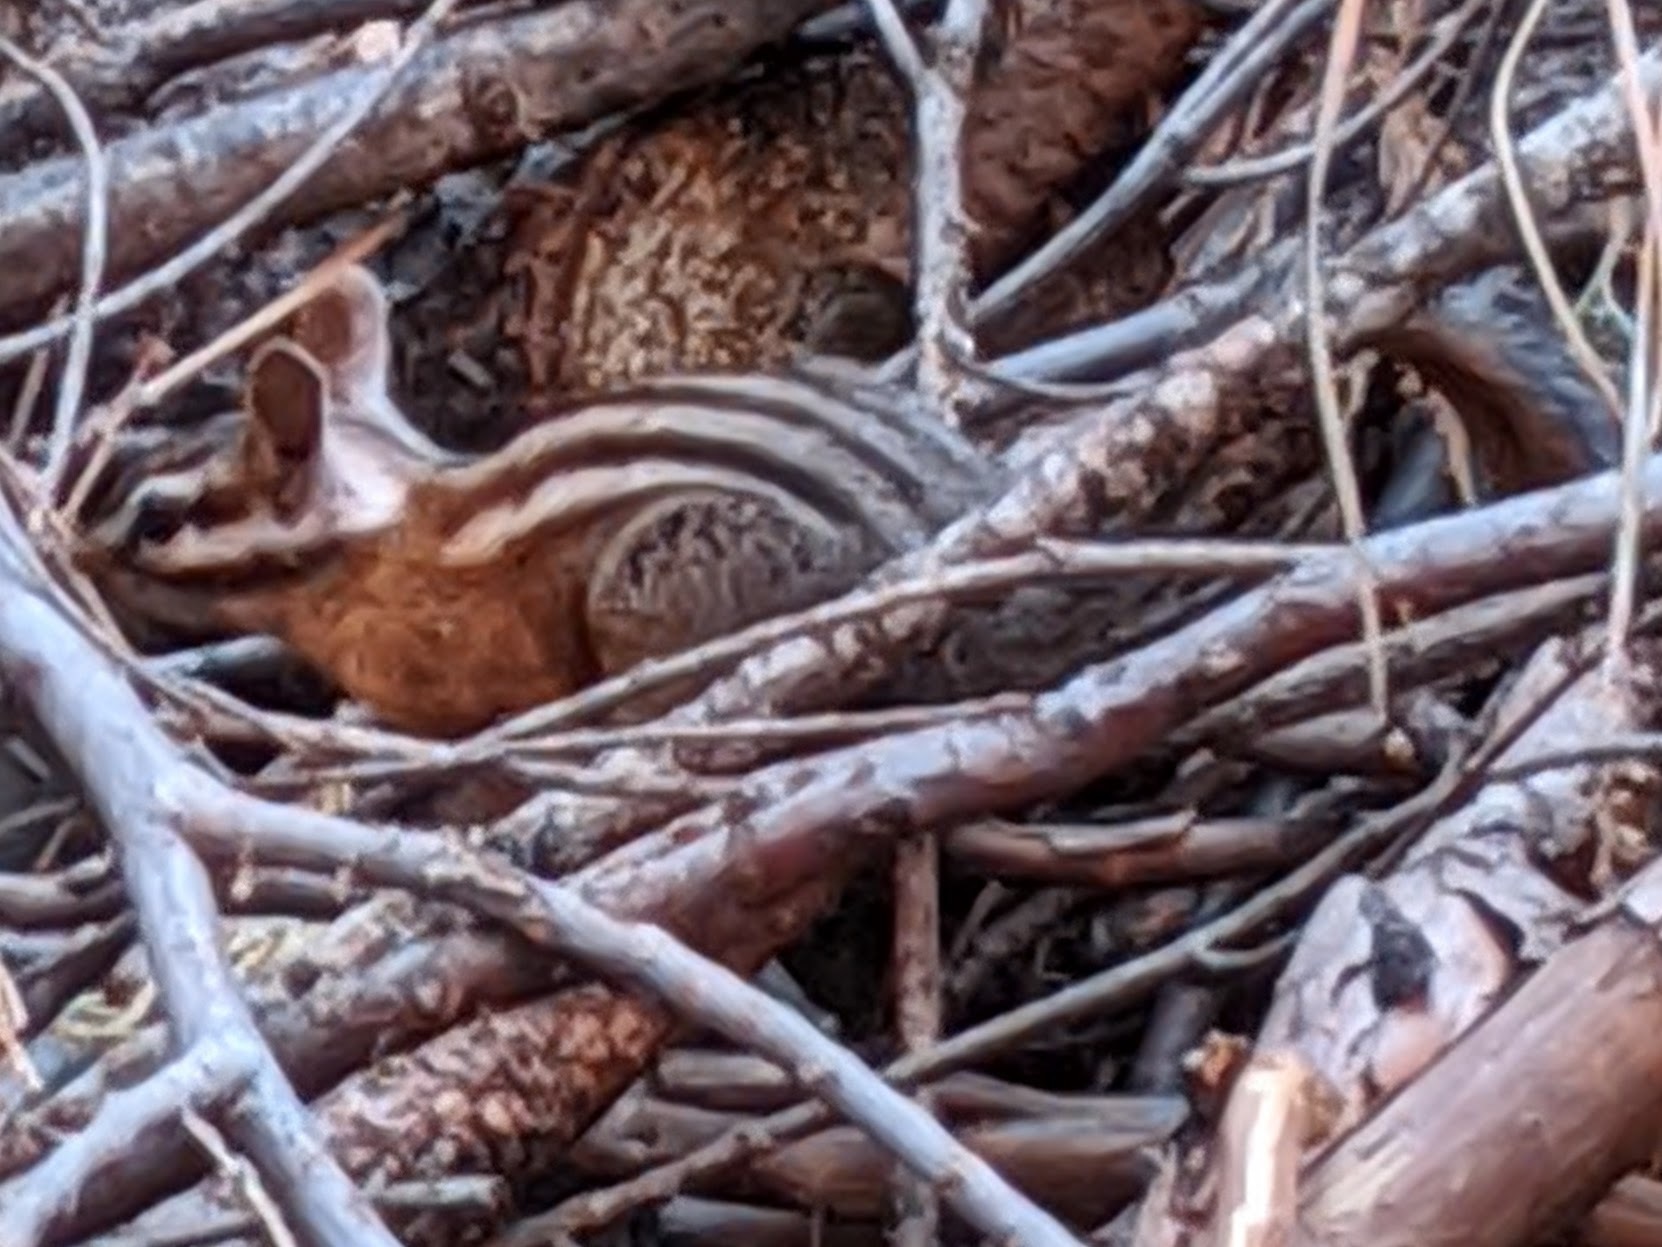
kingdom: Animalia
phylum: Chordata
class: Mammalia
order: Rodentia
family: Sciuridae
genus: Tamias
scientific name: Tamias quadrimaculatus
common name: Long-eared chipmunk
